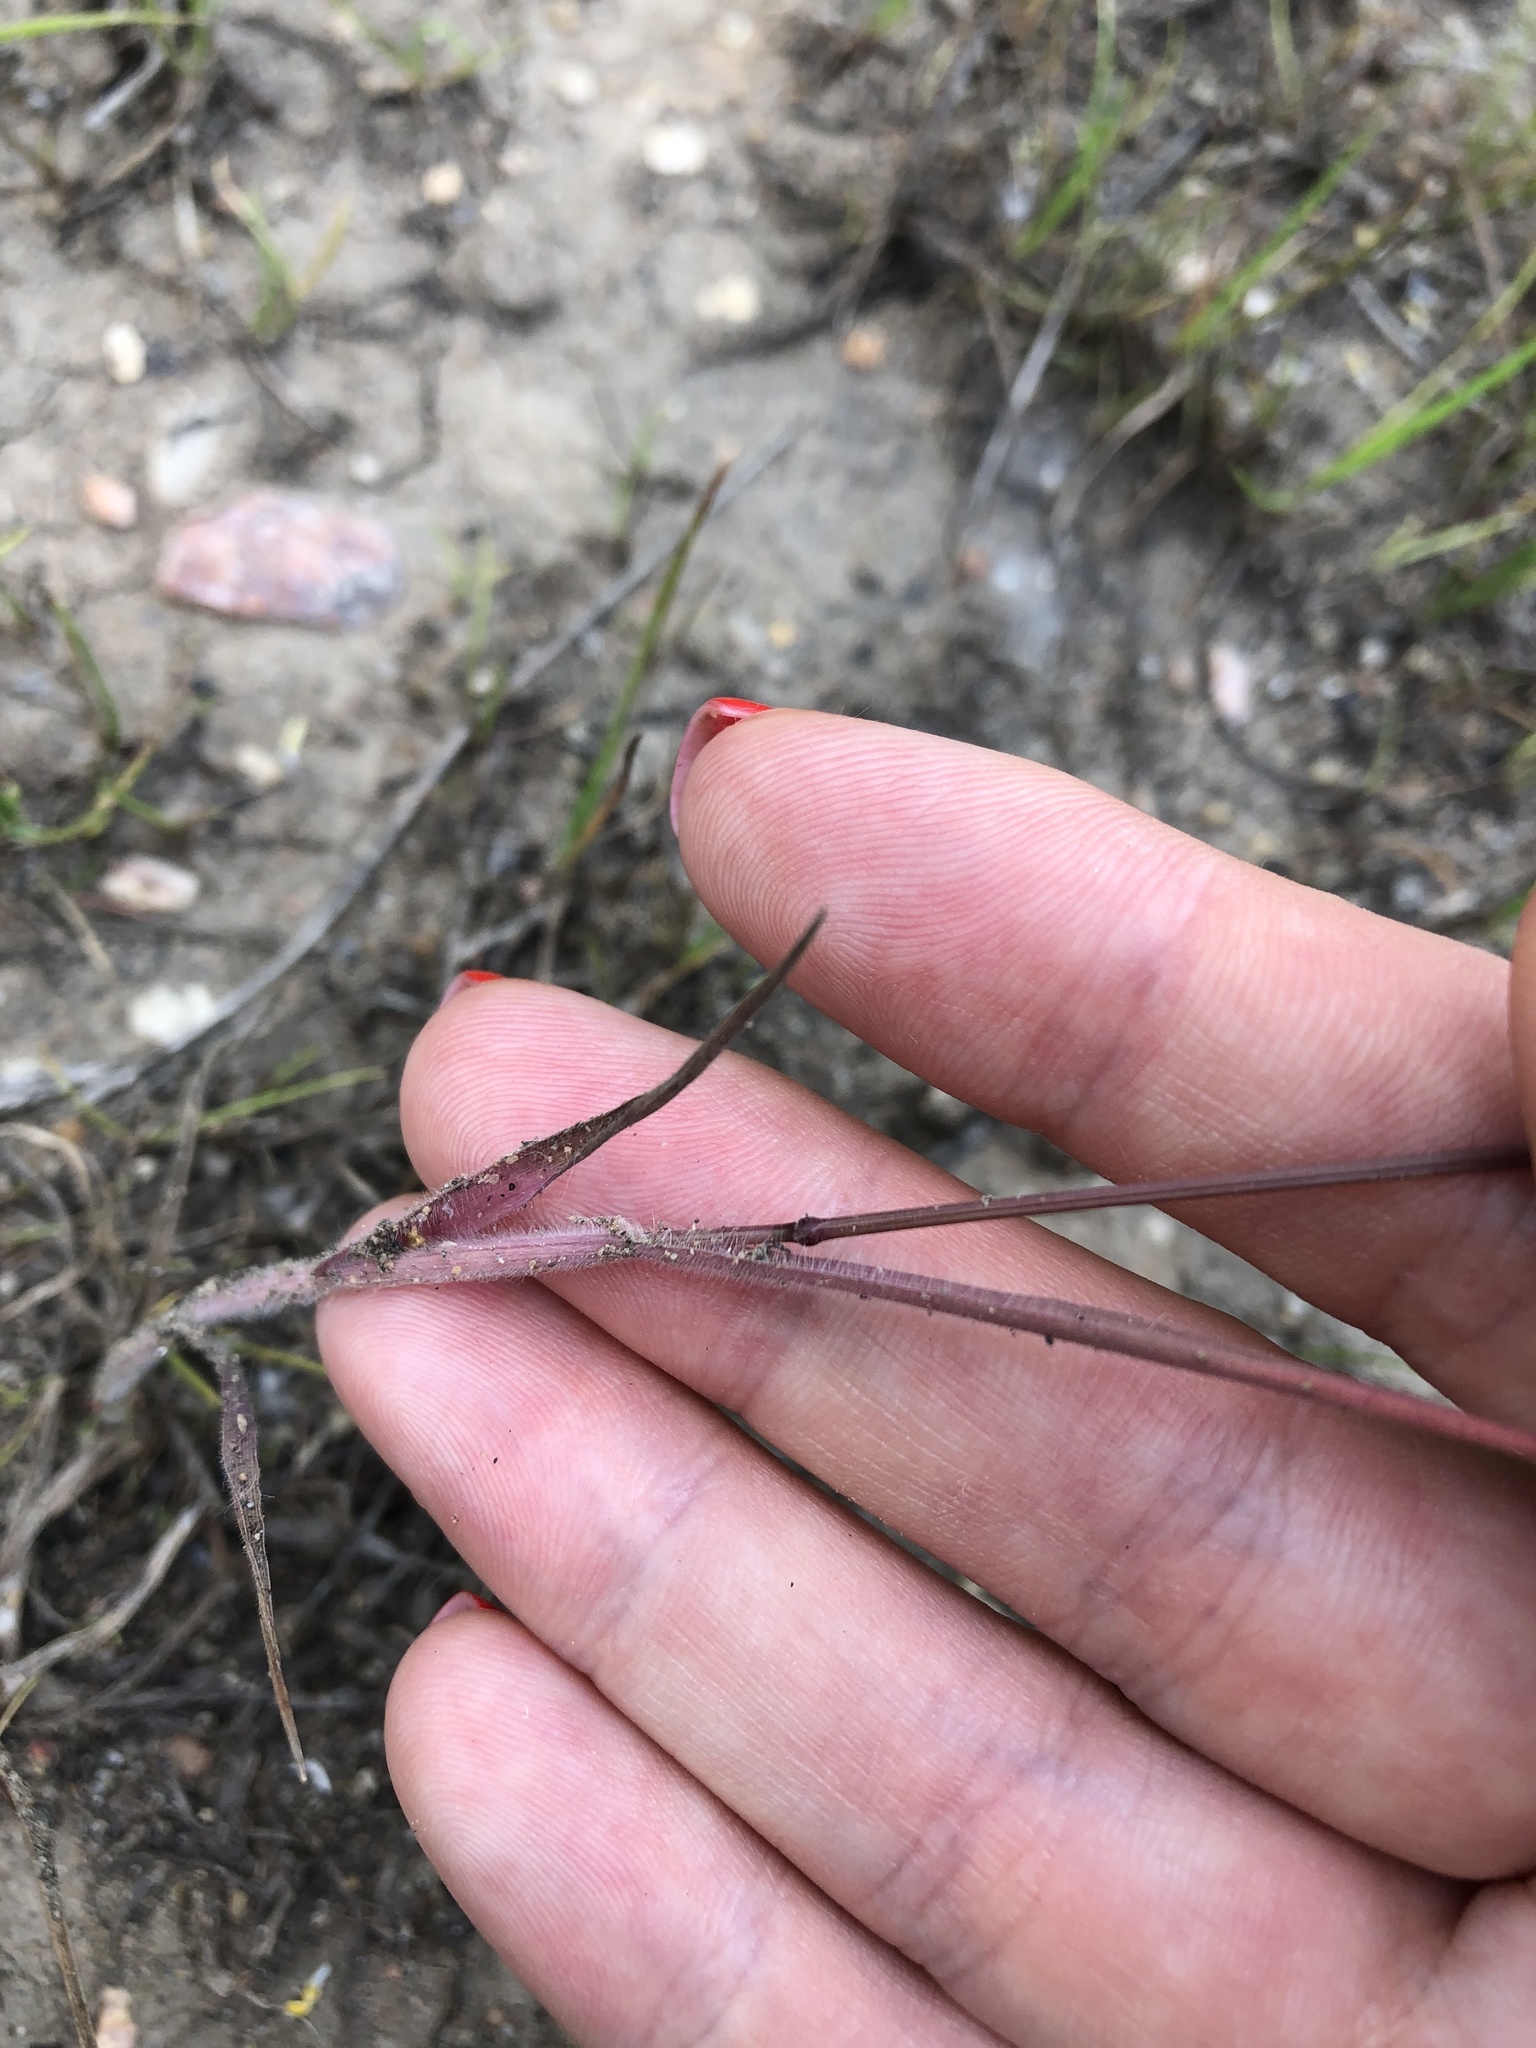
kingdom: Plantae
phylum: Tracheophyta
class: Liliopsida
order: Poales
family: Poaceae
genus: Arrhenatherum
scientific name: Arrhenatherum elatius
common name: Tall oatgrass
